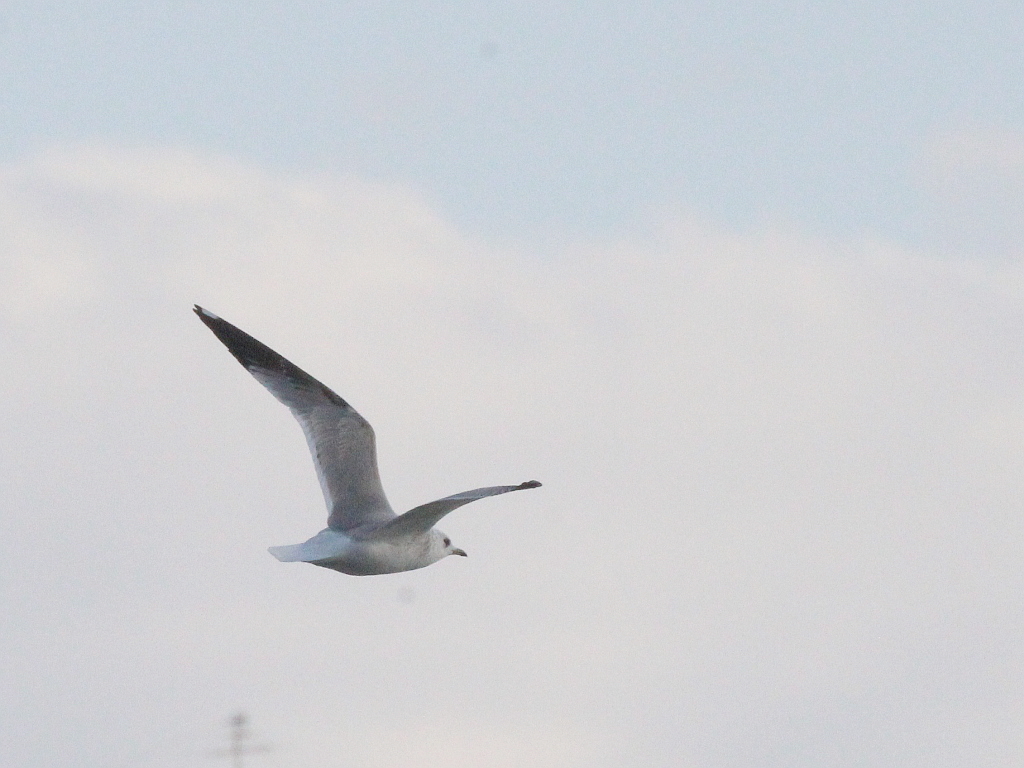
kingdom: Animalia
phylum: Chordata
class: Aves
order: Charadriiformes
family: Laridae
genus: Larus
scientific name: Larus canus
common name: Mew gull
